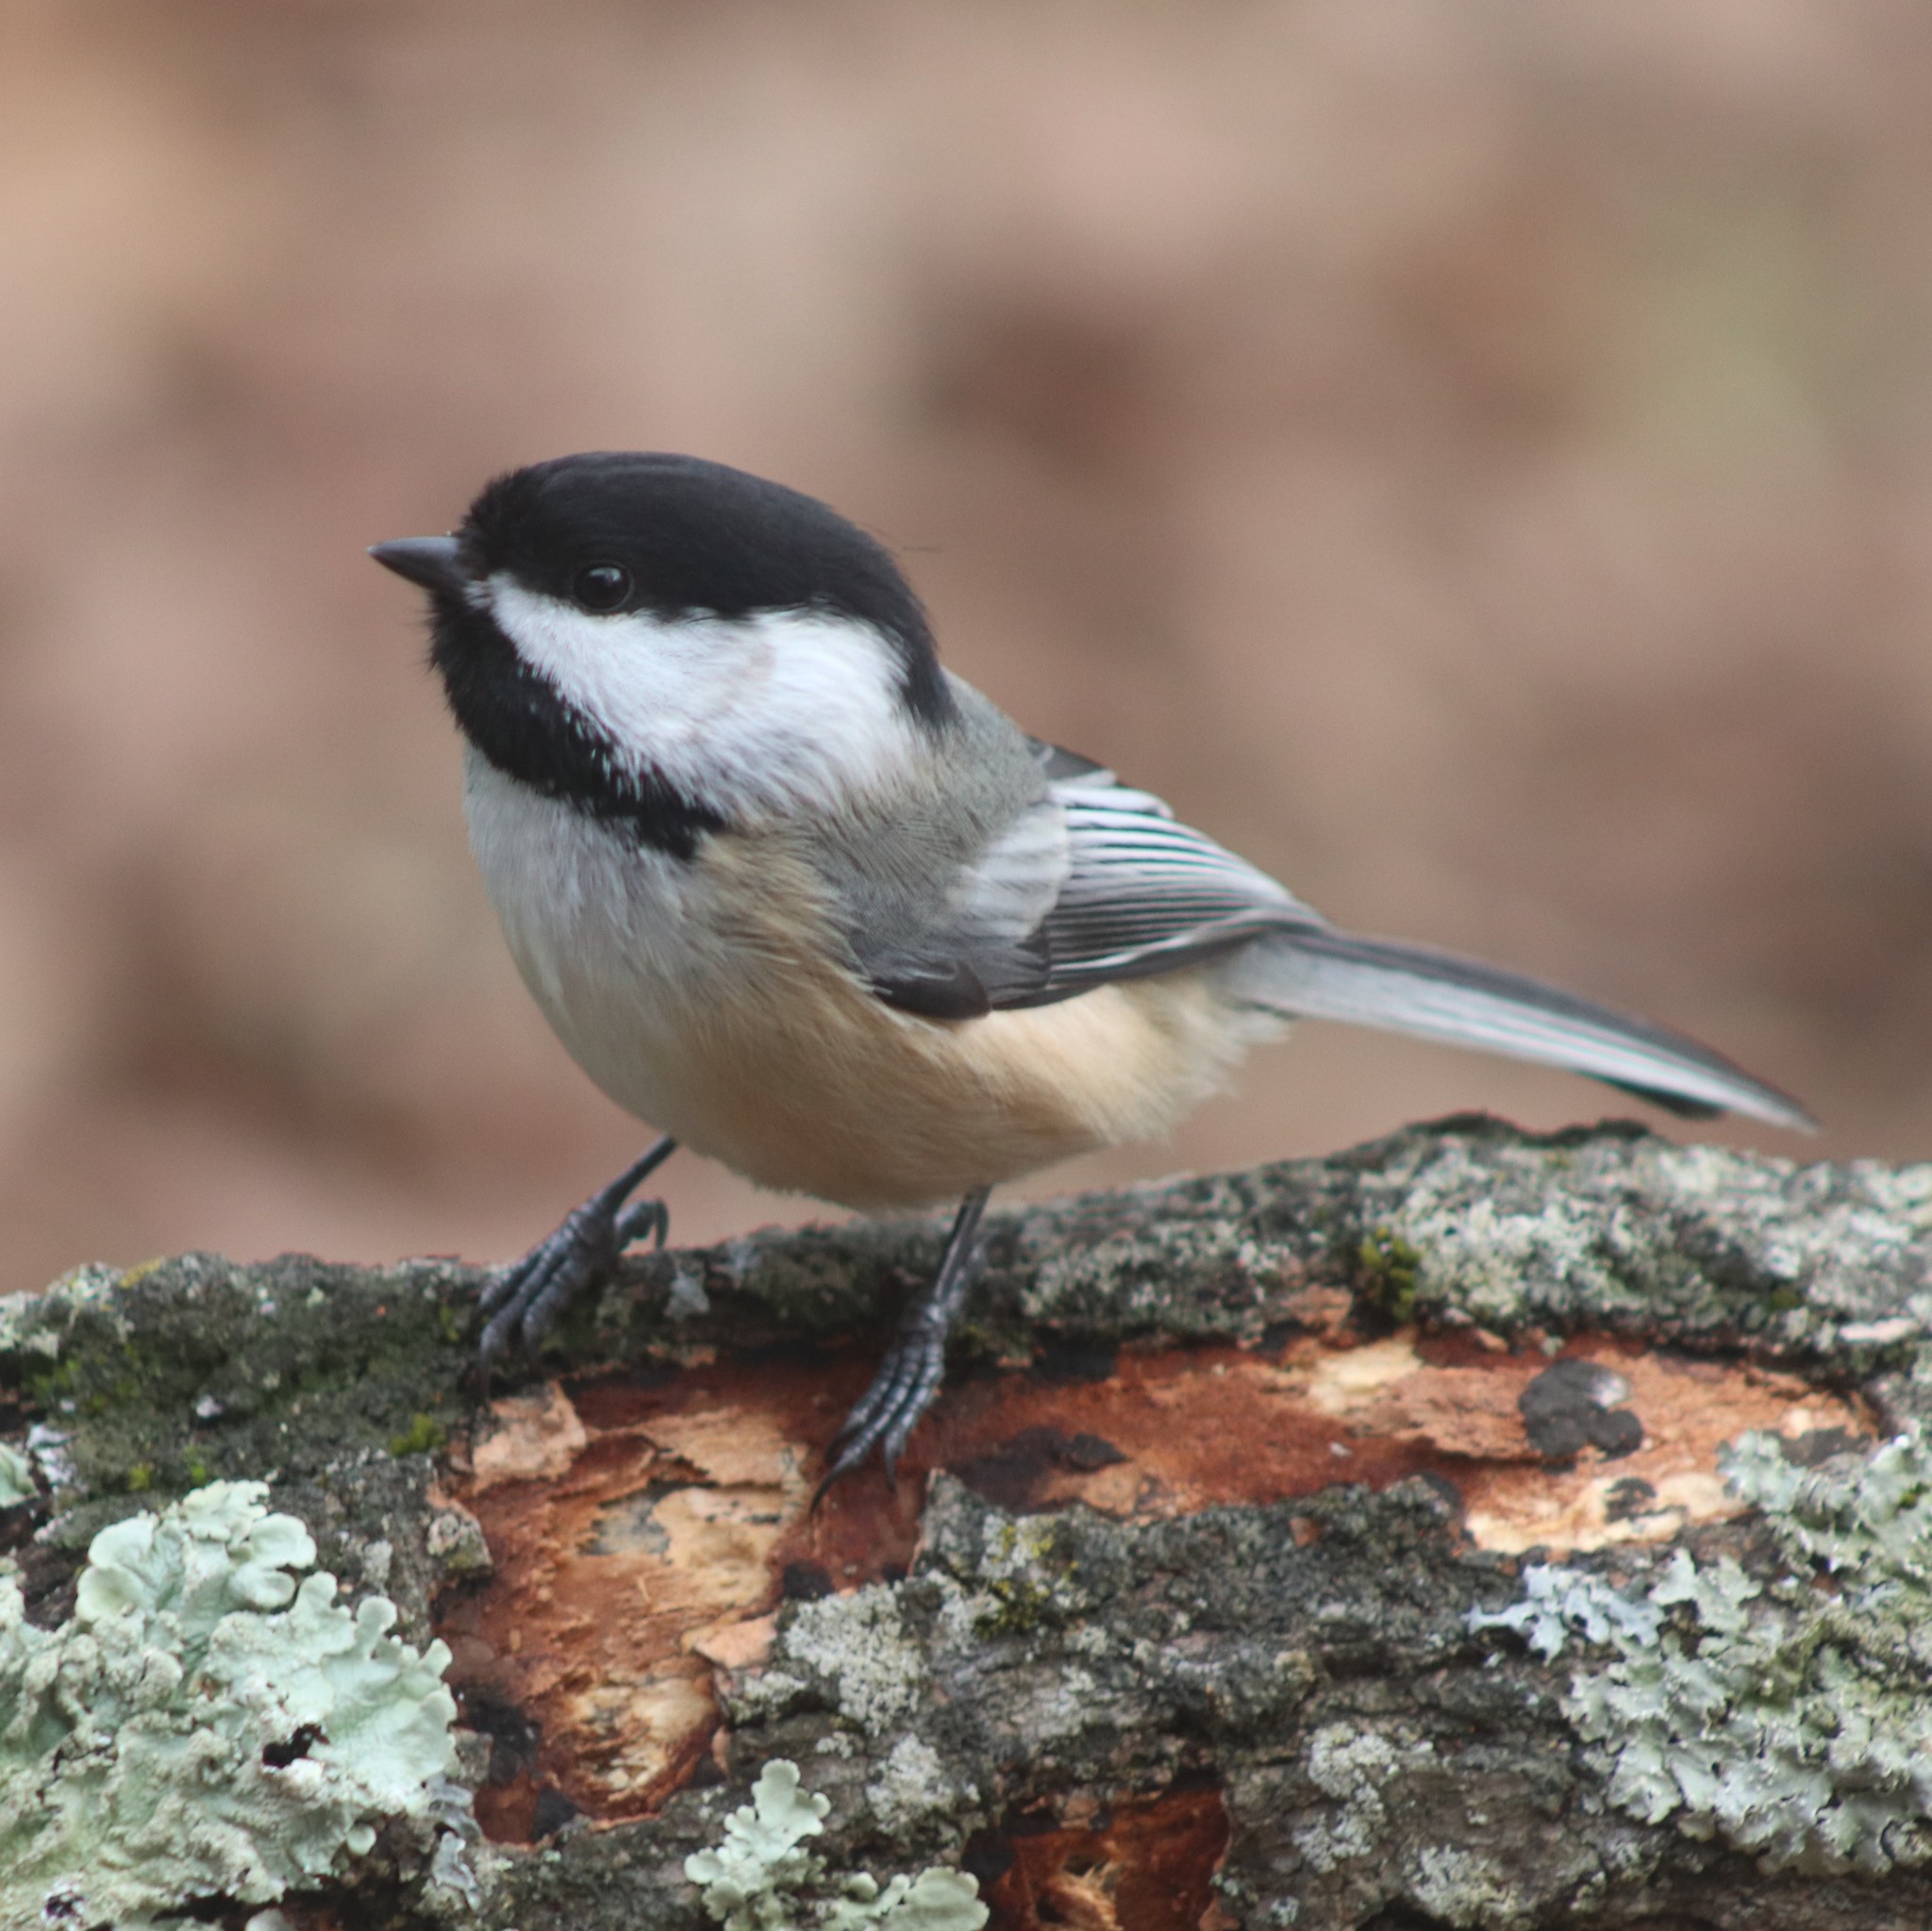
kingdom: Animalia
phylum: Chordata
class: Aves
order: Passeriformes
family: Paridae
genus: Poecile
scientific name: Poecile atricapillus
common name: Black-capped chickadee
